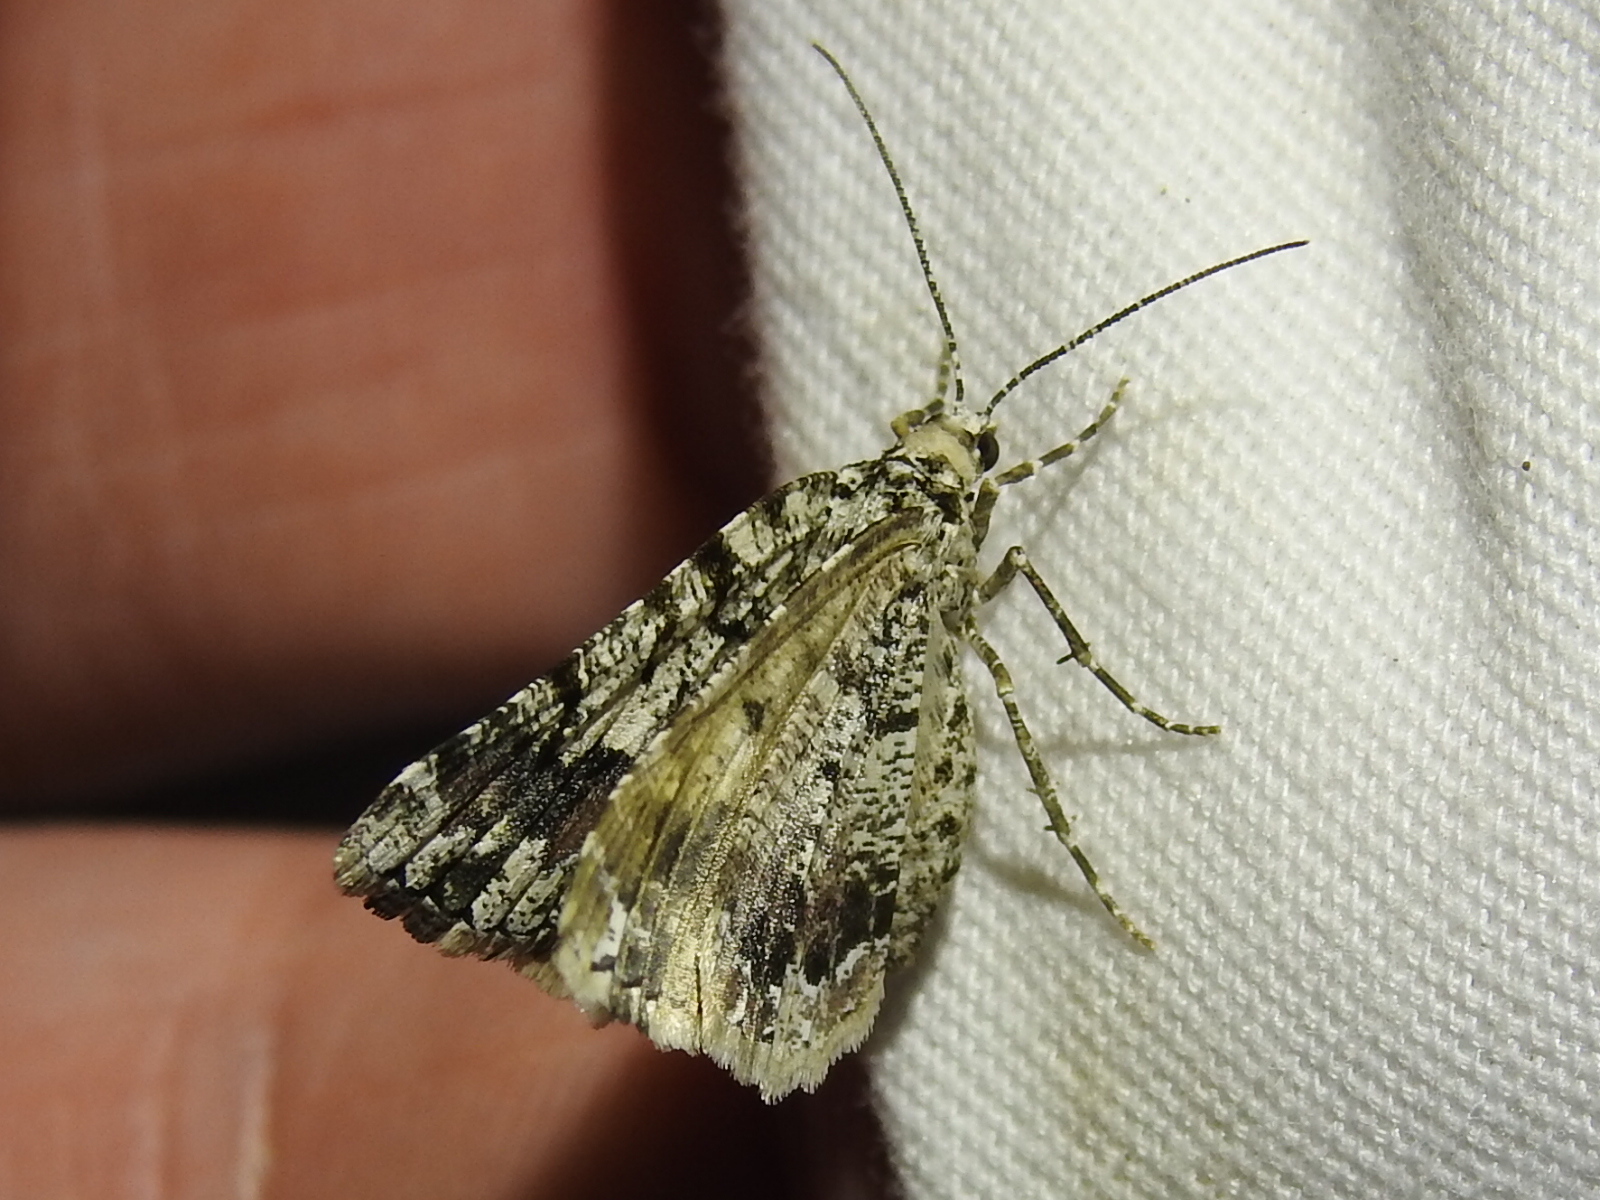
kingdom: Animalia
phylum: Arthropoda
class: Insecta
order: Lepidoptera
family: Geometridae
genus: Macaria
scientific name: Macaria graphidaria
